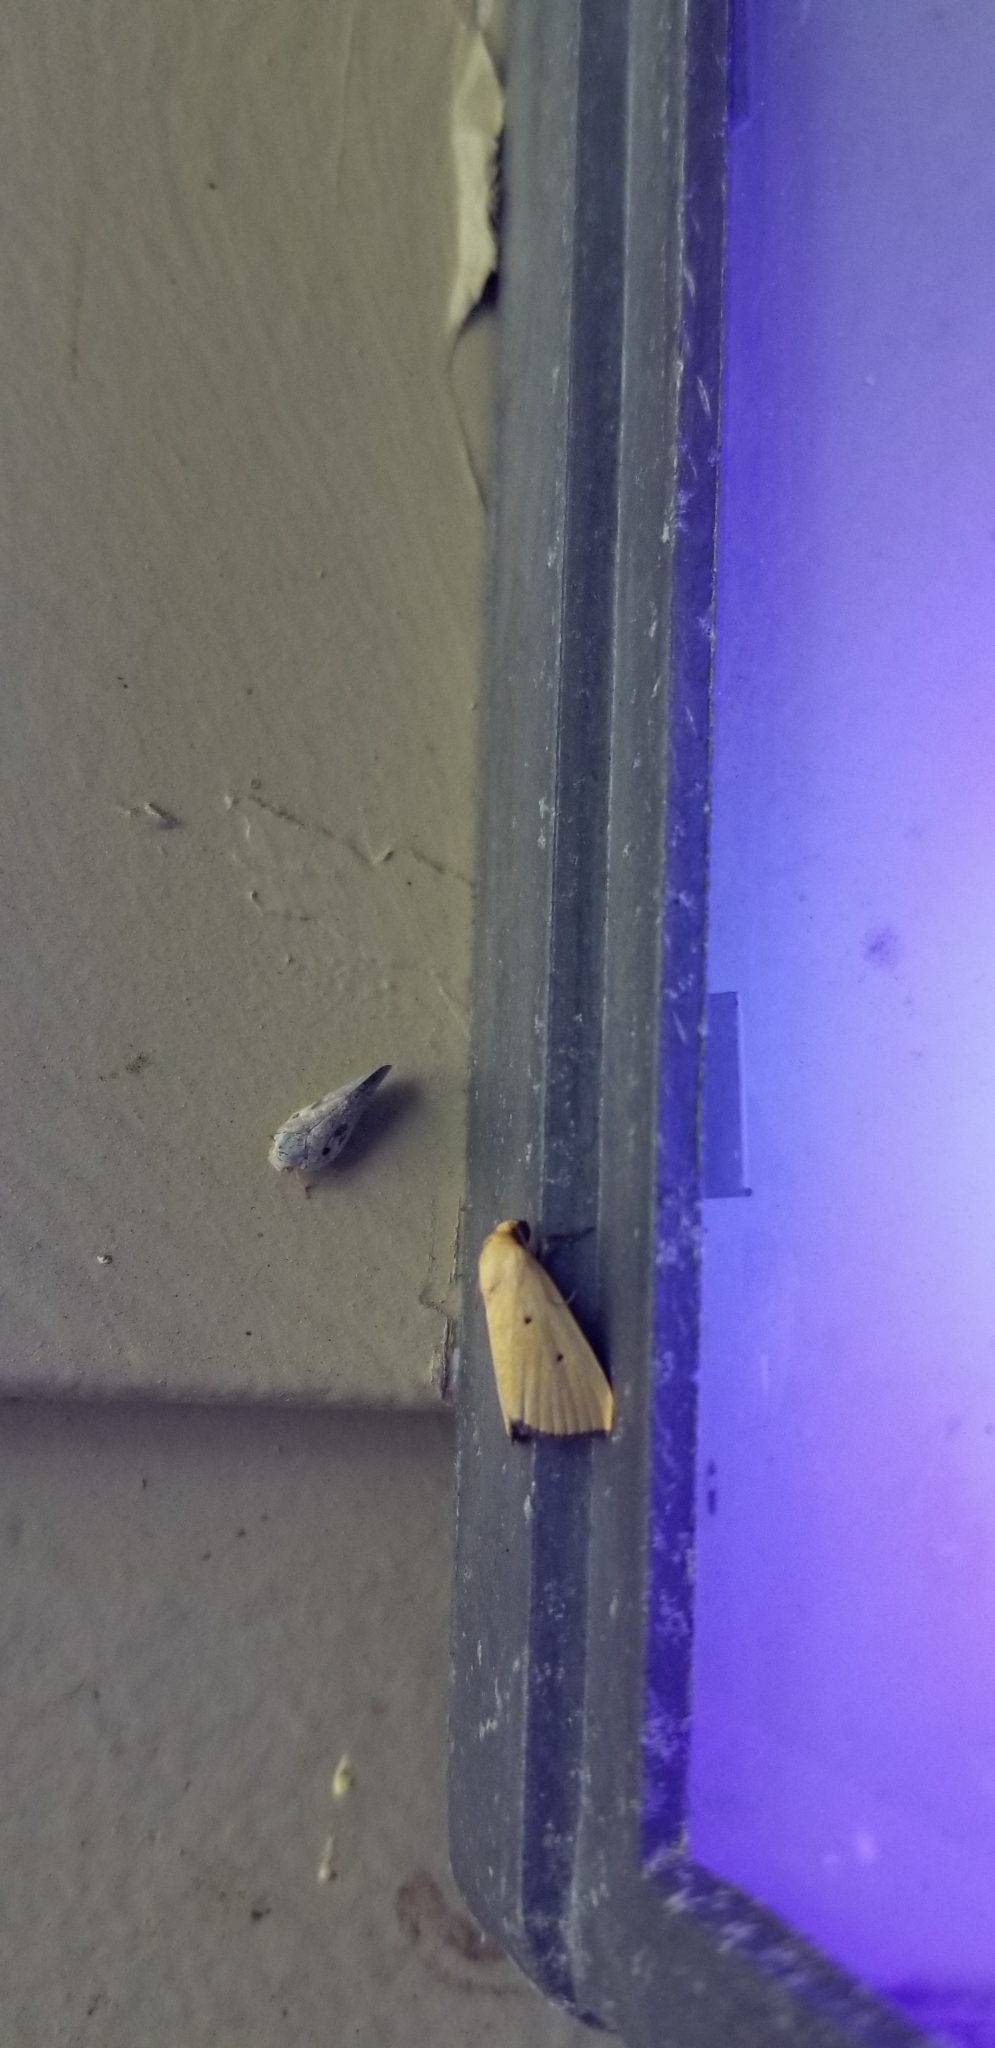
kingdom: Animalia
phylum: Arthropoda
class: Insecta
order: Lepidoptera
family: Noctuidae
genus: Marimatha
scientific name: Marimatha nigrofimbria
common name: Black-bordered lemon moth
